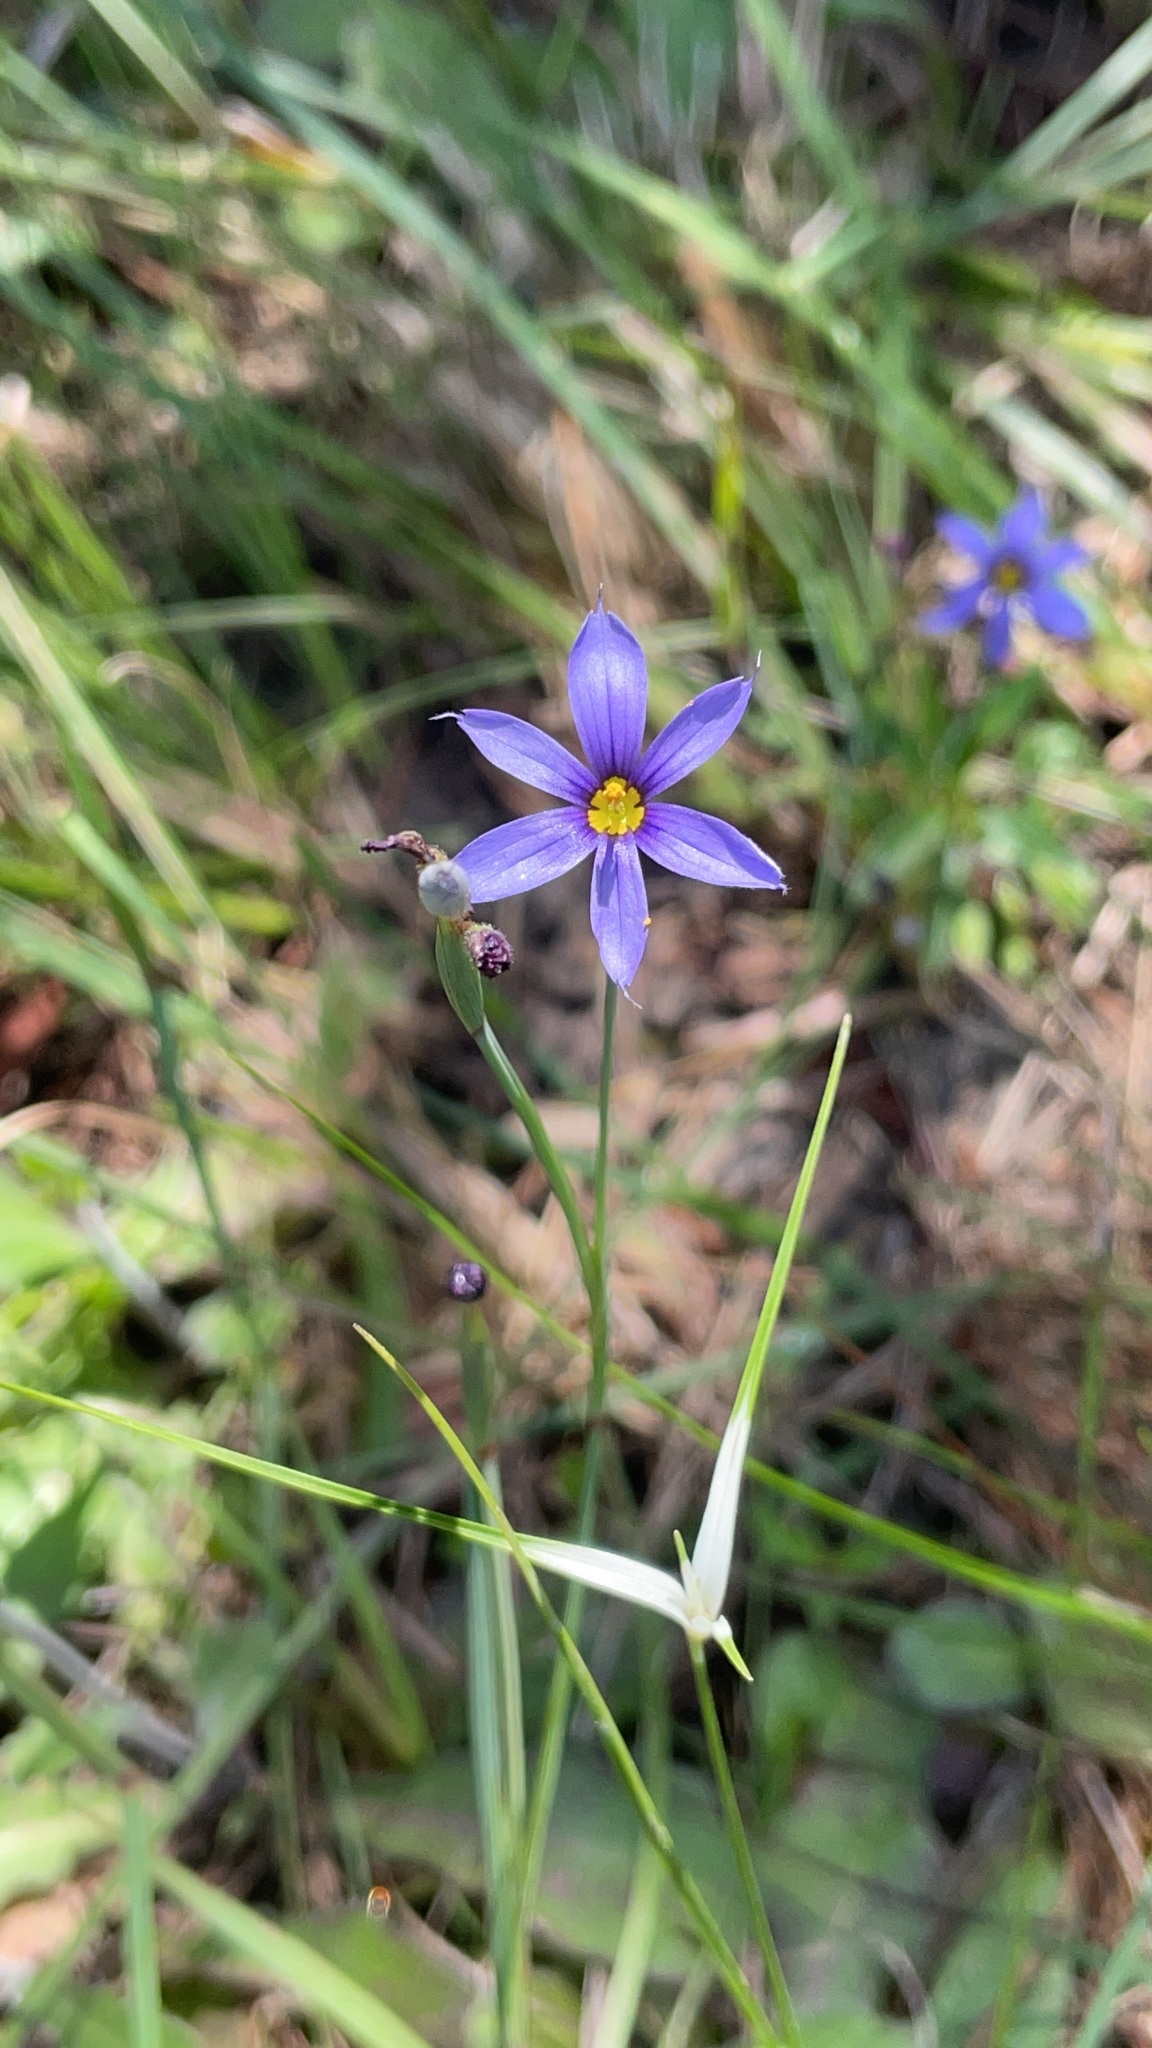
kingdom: Plantae
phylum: Tracheophyta
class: Liliopsida
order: Asparagales
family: Iridaceae
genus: Sisyrinchium
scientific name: Sisyrinchium miamiense
